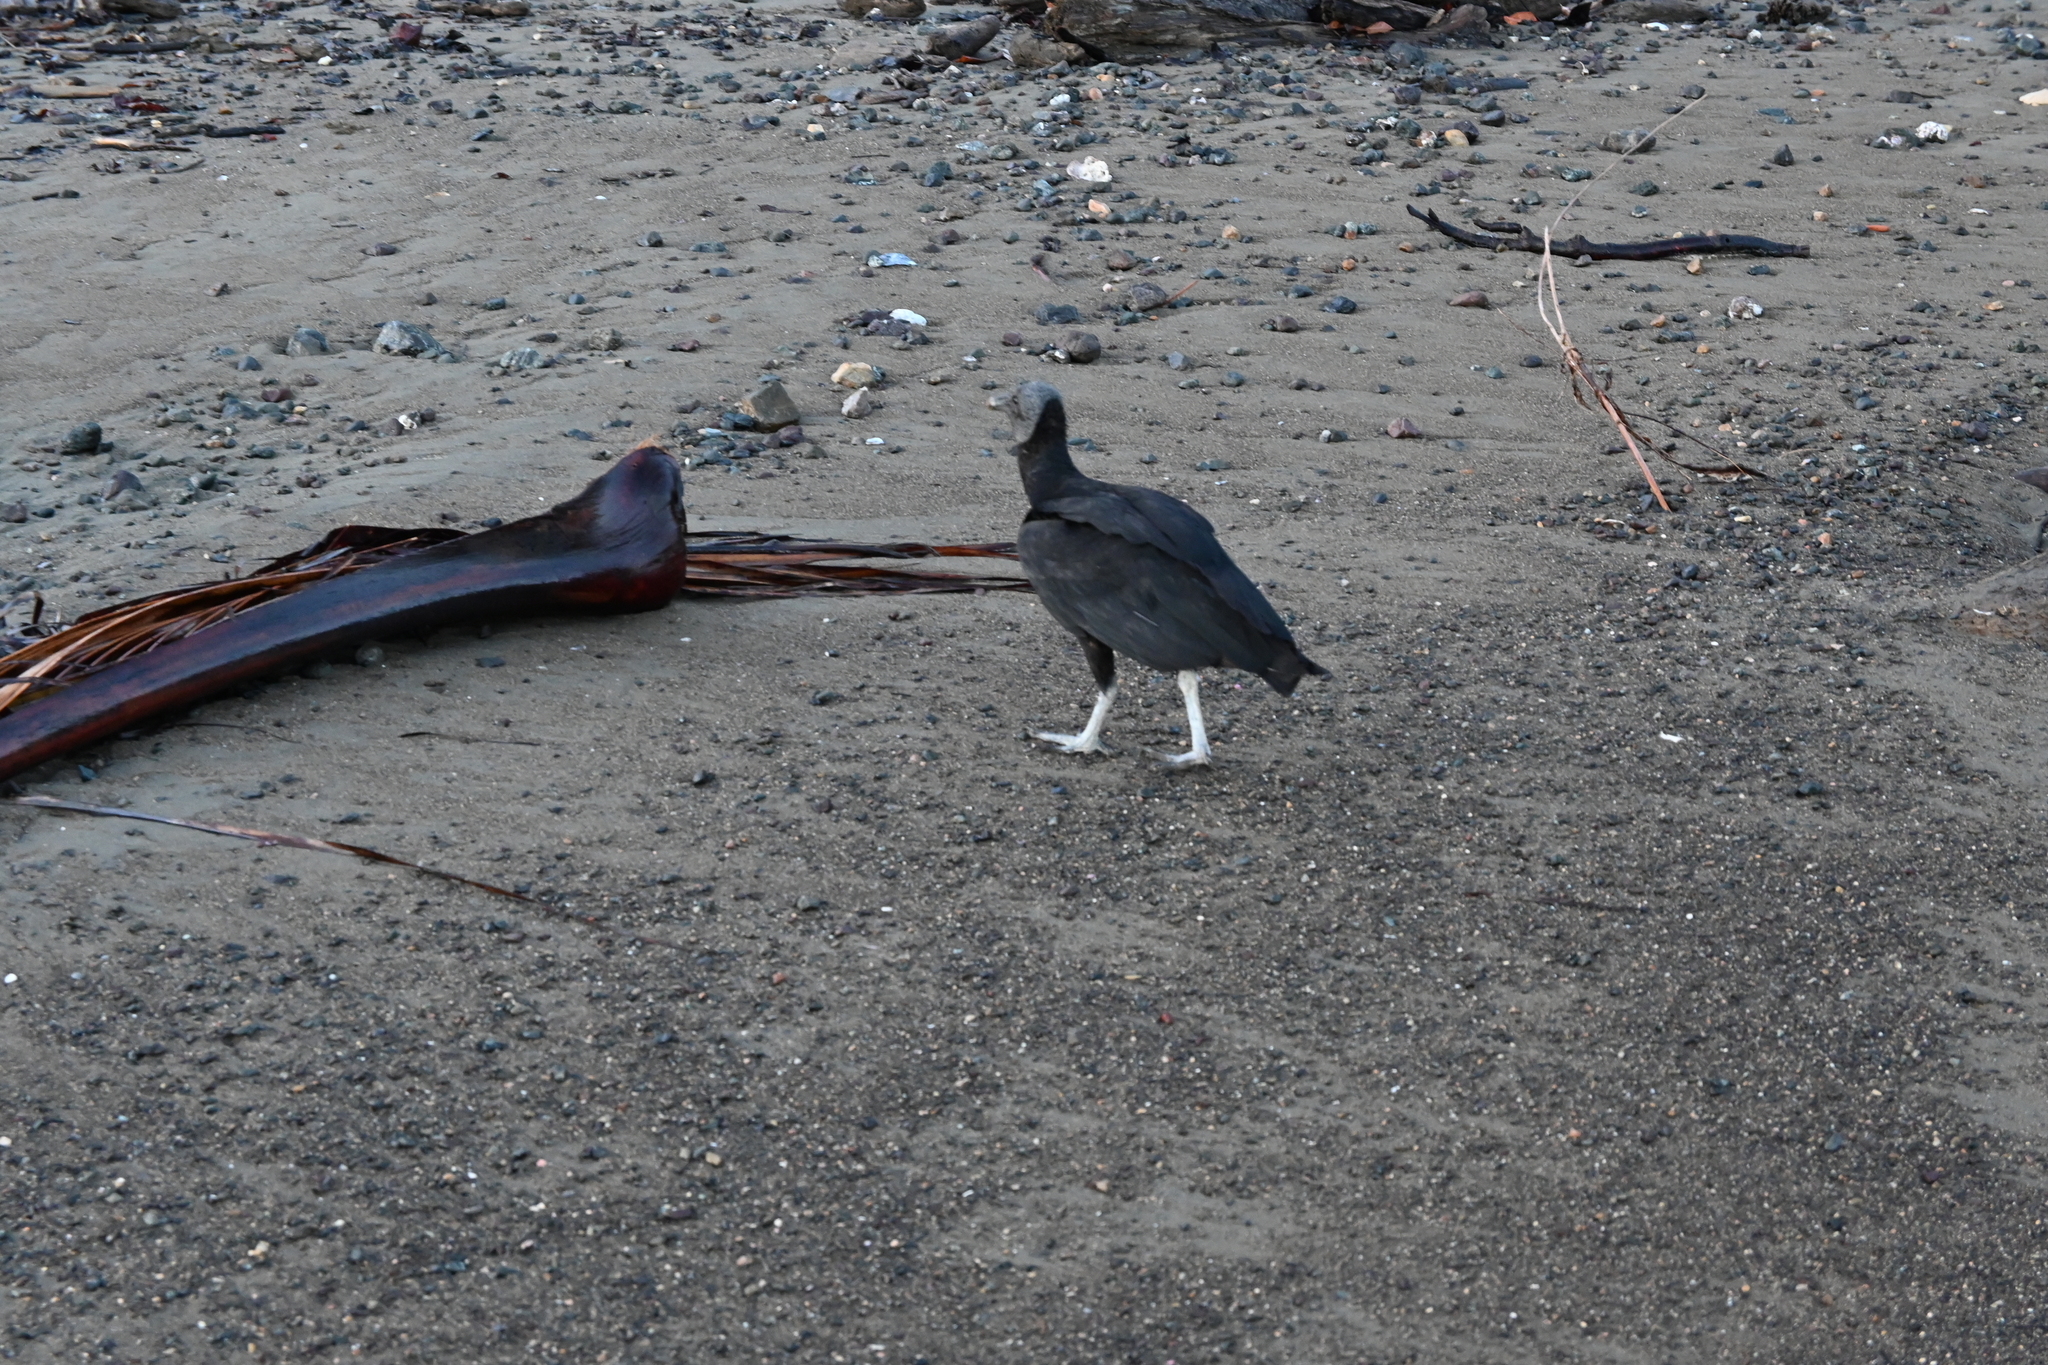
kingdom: Animalia
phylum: Chordata
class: Aves
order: Accipitriformes
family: Cathartidae
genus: Coragyps
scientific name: Coragyps atratus
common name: Black vulture
